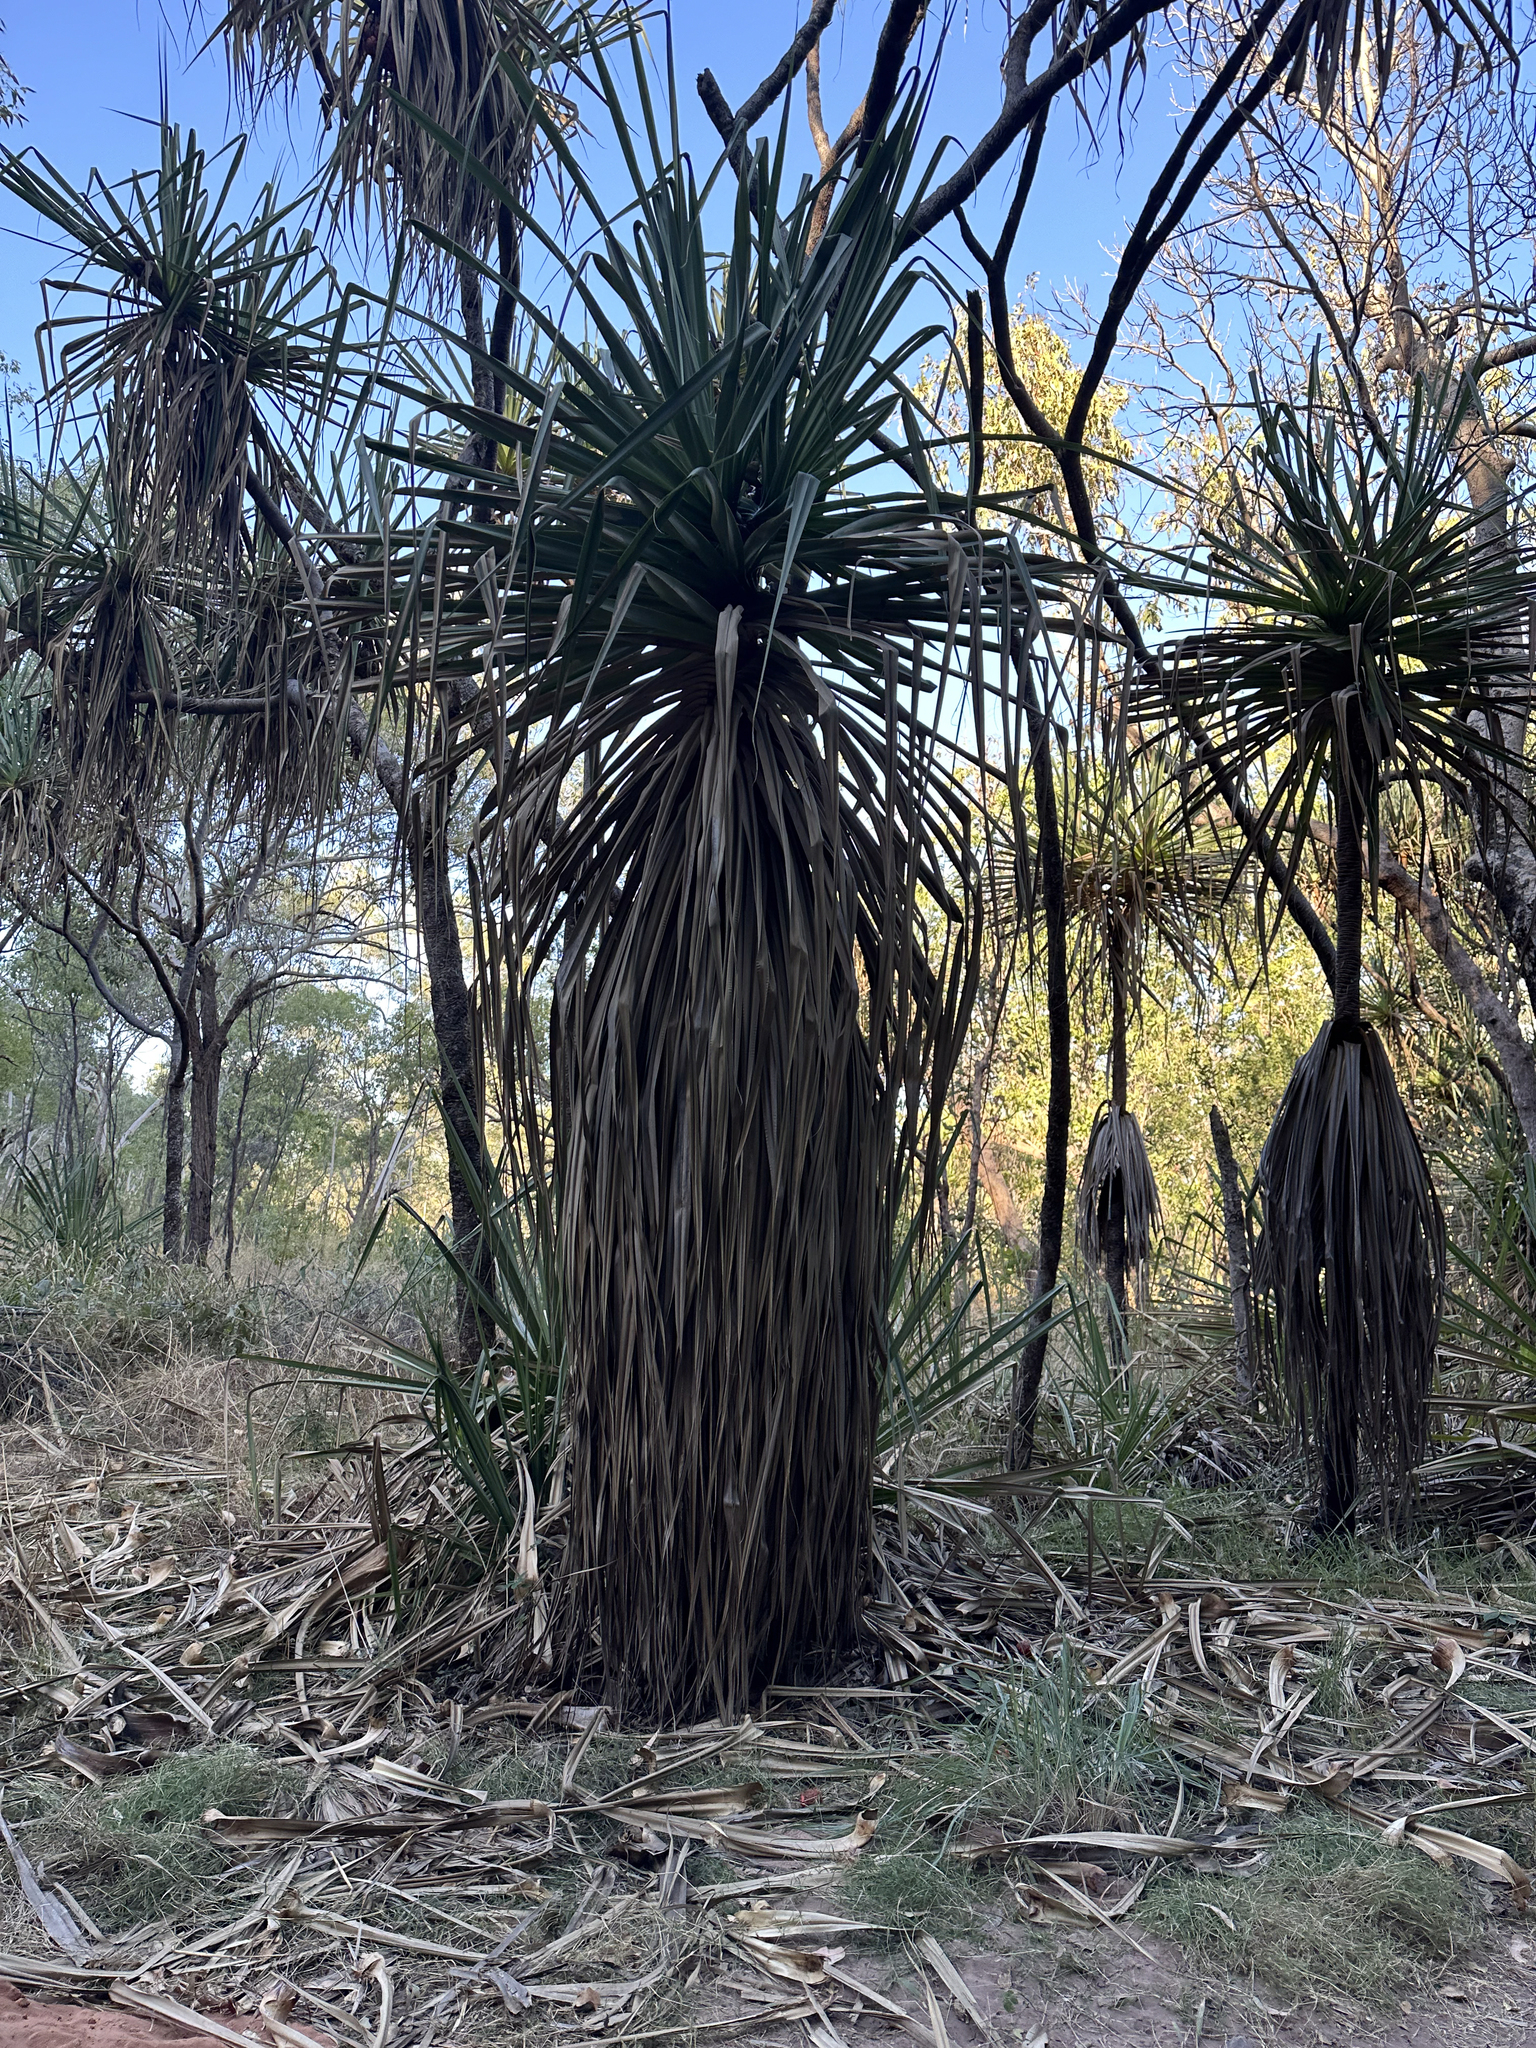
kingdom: Plantae
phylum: Tracheophyta
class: Liliopsida
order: Pandanales
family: Pandanaceae
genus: Pandanus
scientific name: Pandanus spiralis
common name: Screw-pine
